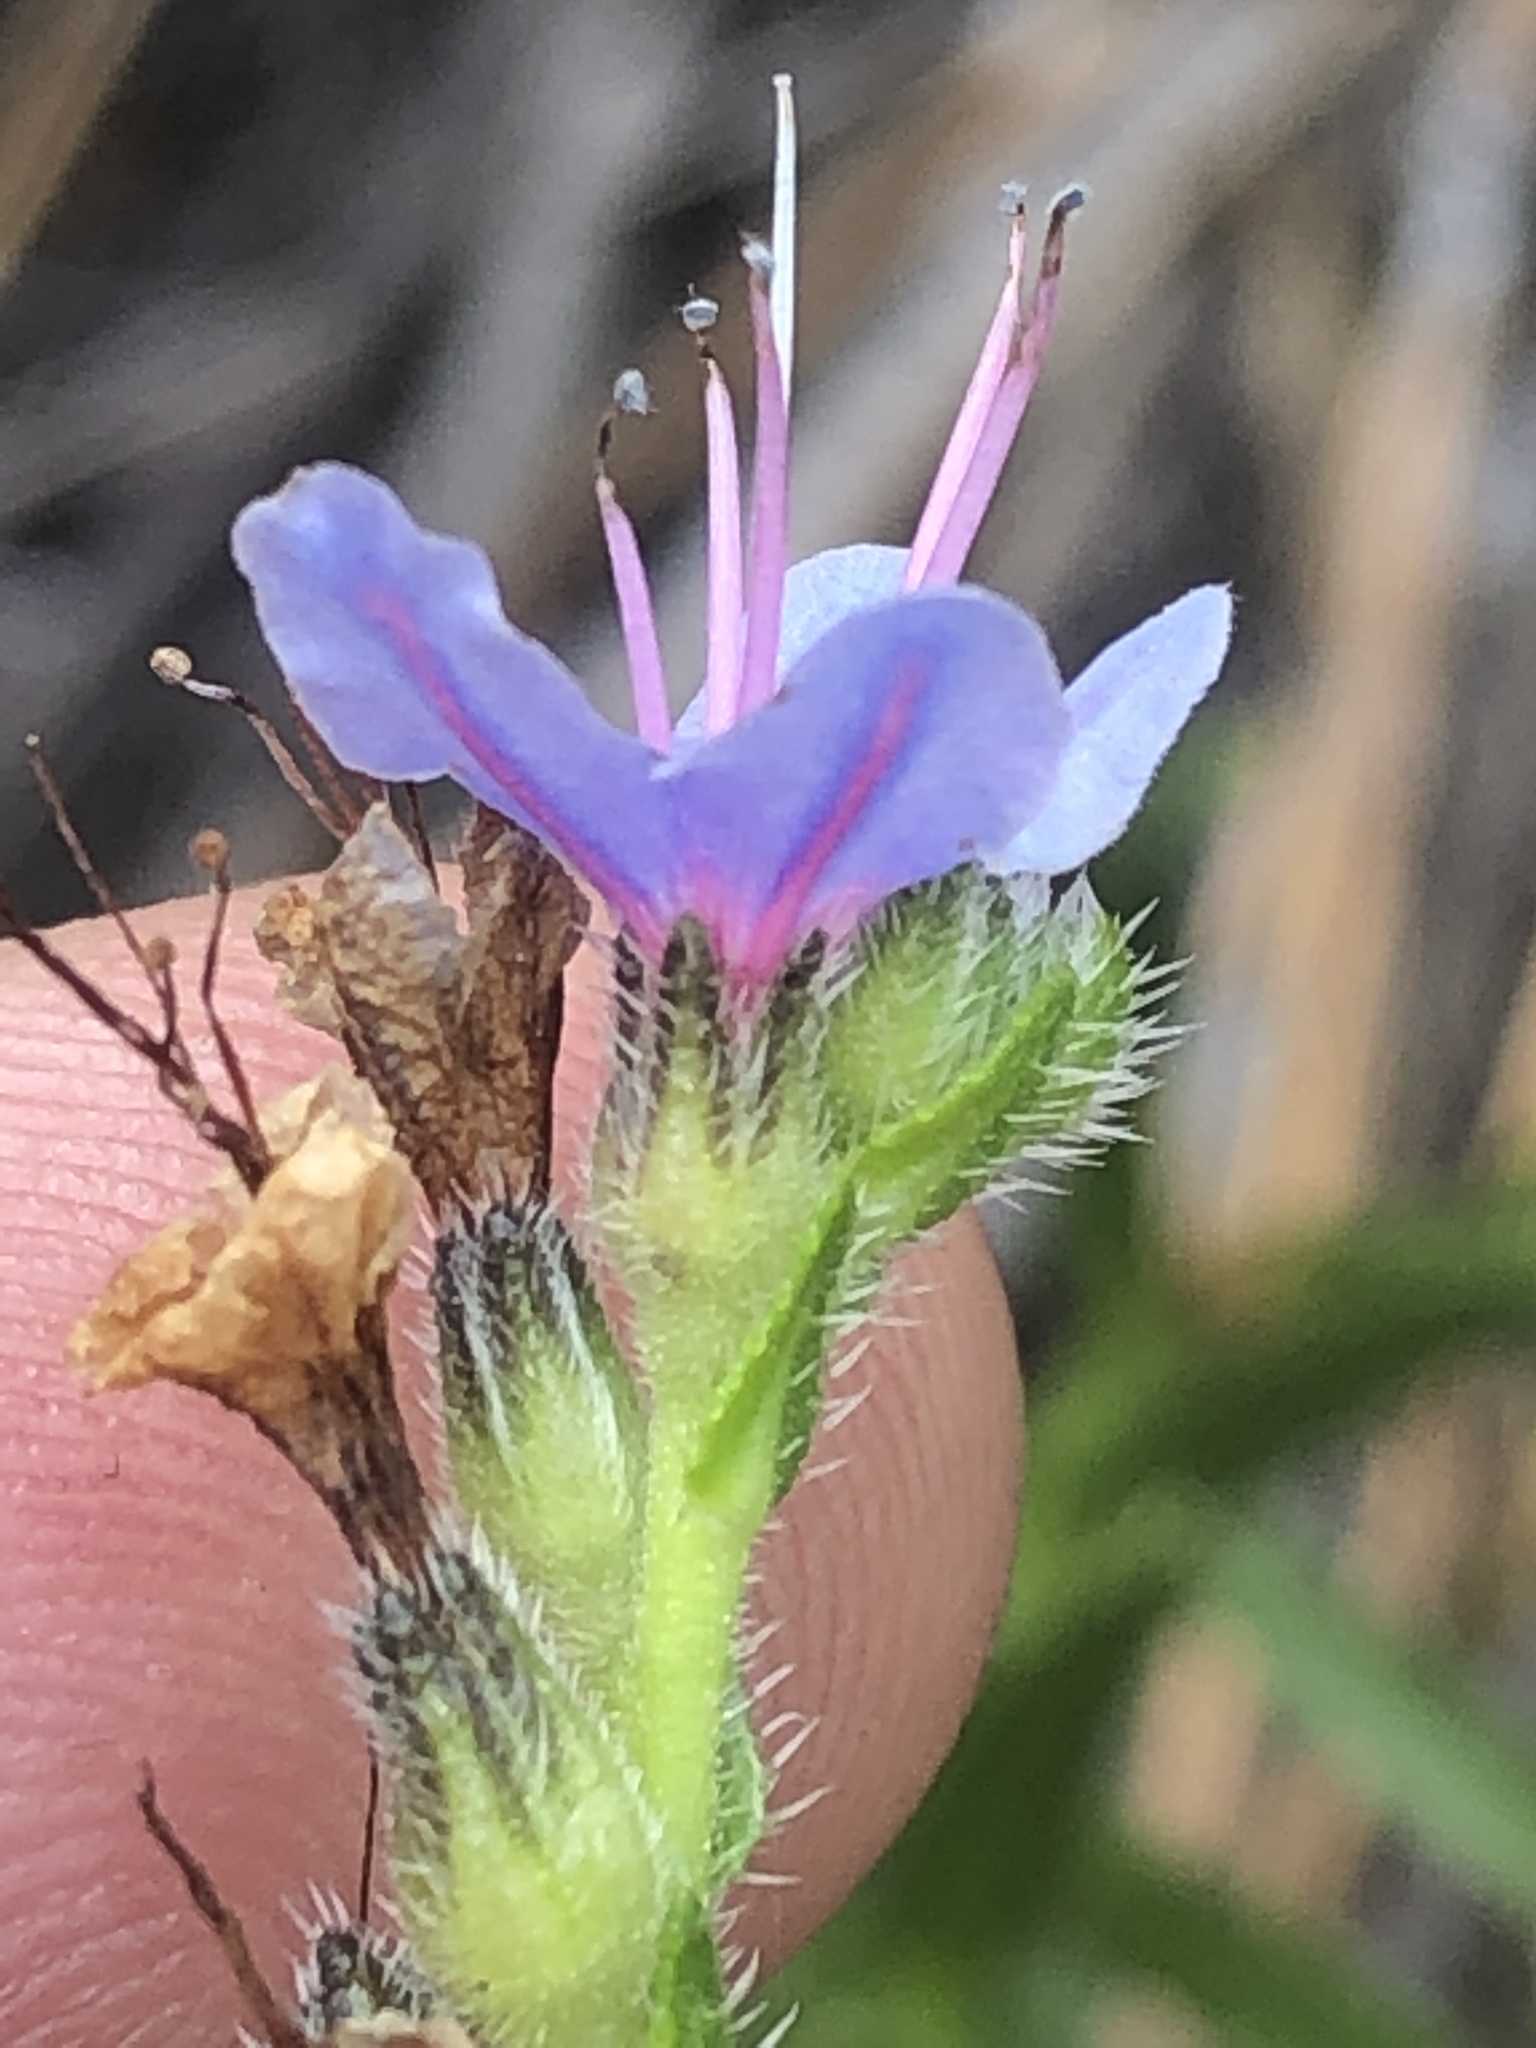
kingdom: Plantae
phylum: Tracheophyta
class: Magnoliopsida
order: Boraginales
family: Boraginaceae
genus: Lobostemon
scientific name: Lobostemon paniculatus
